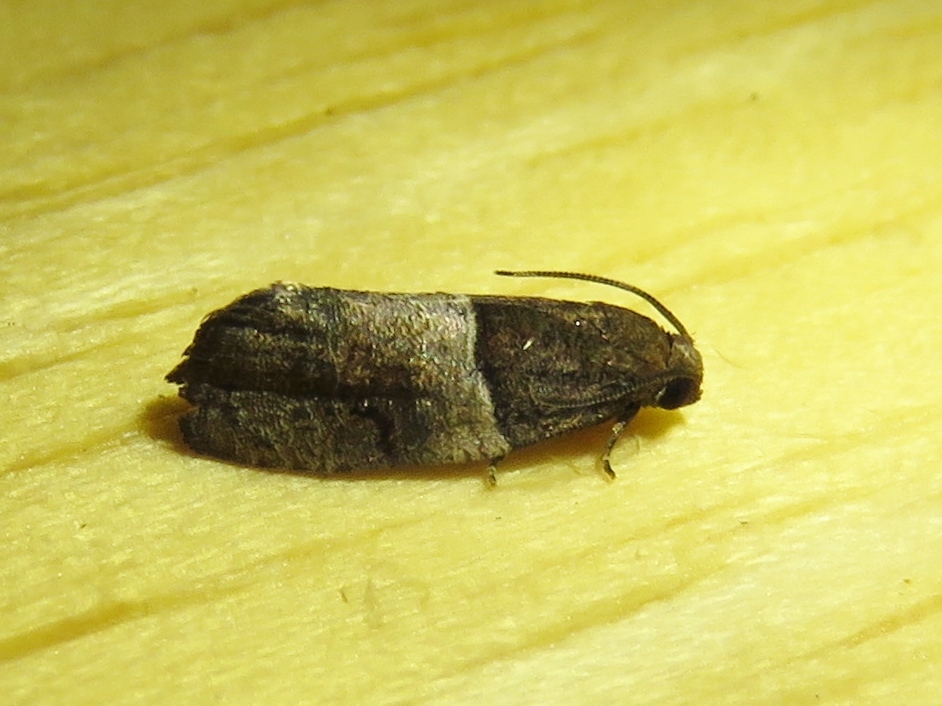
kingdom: Animalia
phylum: Arthropoda
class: Insecta
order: Lepidoptera
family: Tortricidae
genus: Larisa
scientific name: Larisa subsolana
